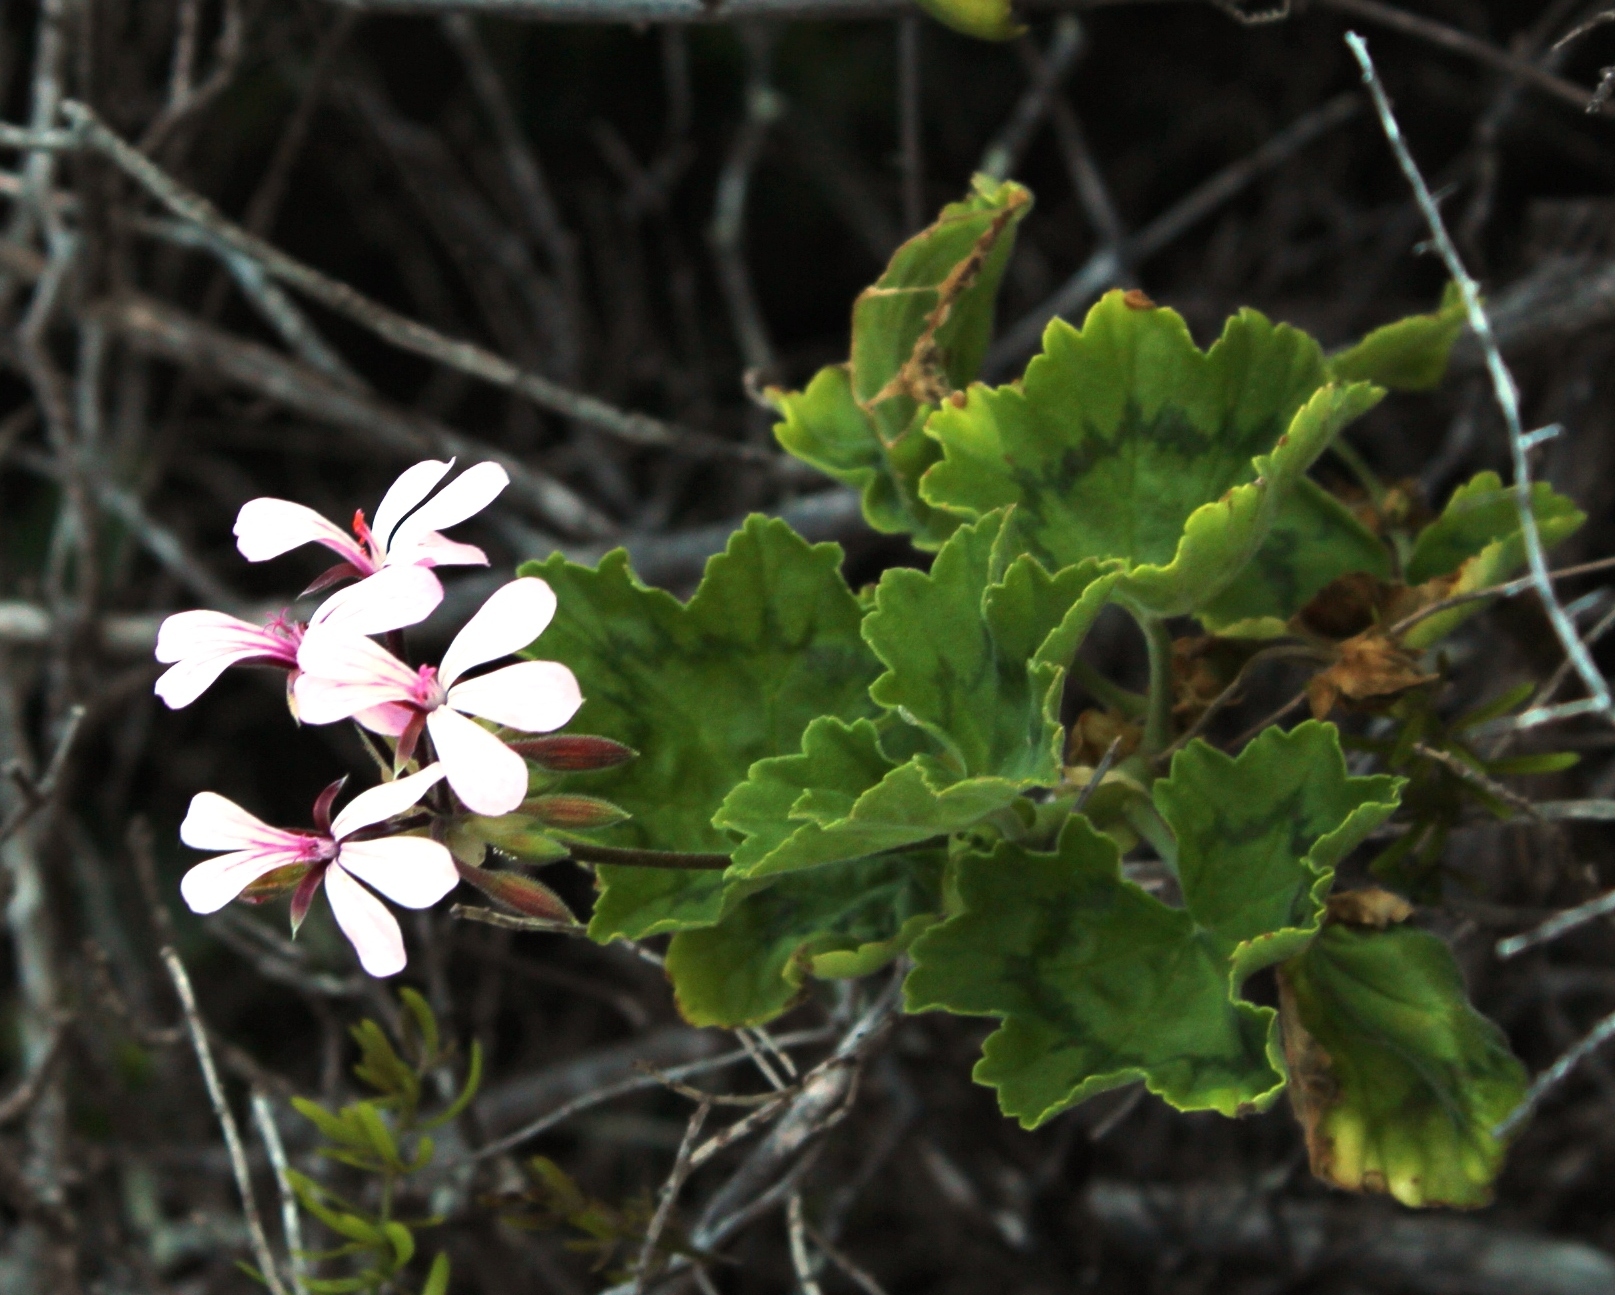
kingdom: Plantae
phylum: Tracheophyta
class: Magnoliopsida
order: Geraniales
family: Geraniaceae
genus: Pelargonium
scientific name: Pelargonium zonale
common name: Horseshoe geranium
